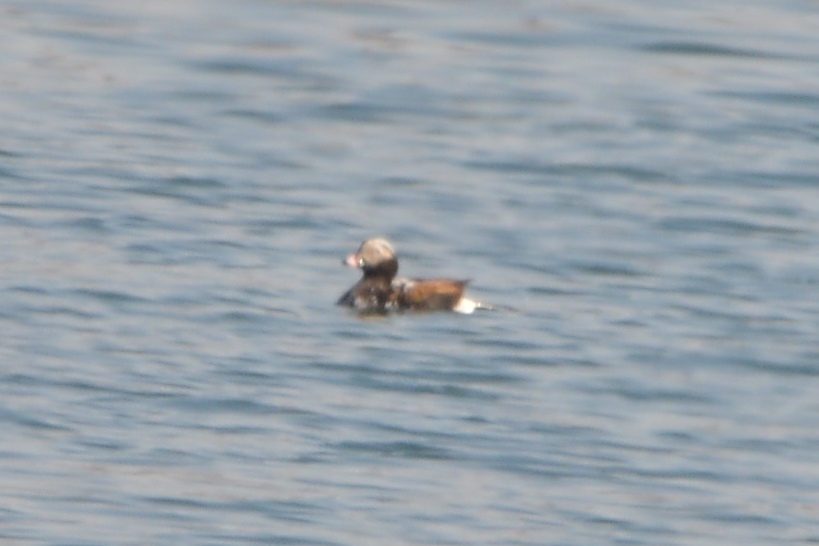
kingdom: Animalia
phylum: Chordata
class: Aves
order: Anseriformes
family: Anatidae
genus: Clangula
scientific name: Clangula hyemalis
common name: Long-tailed duck
